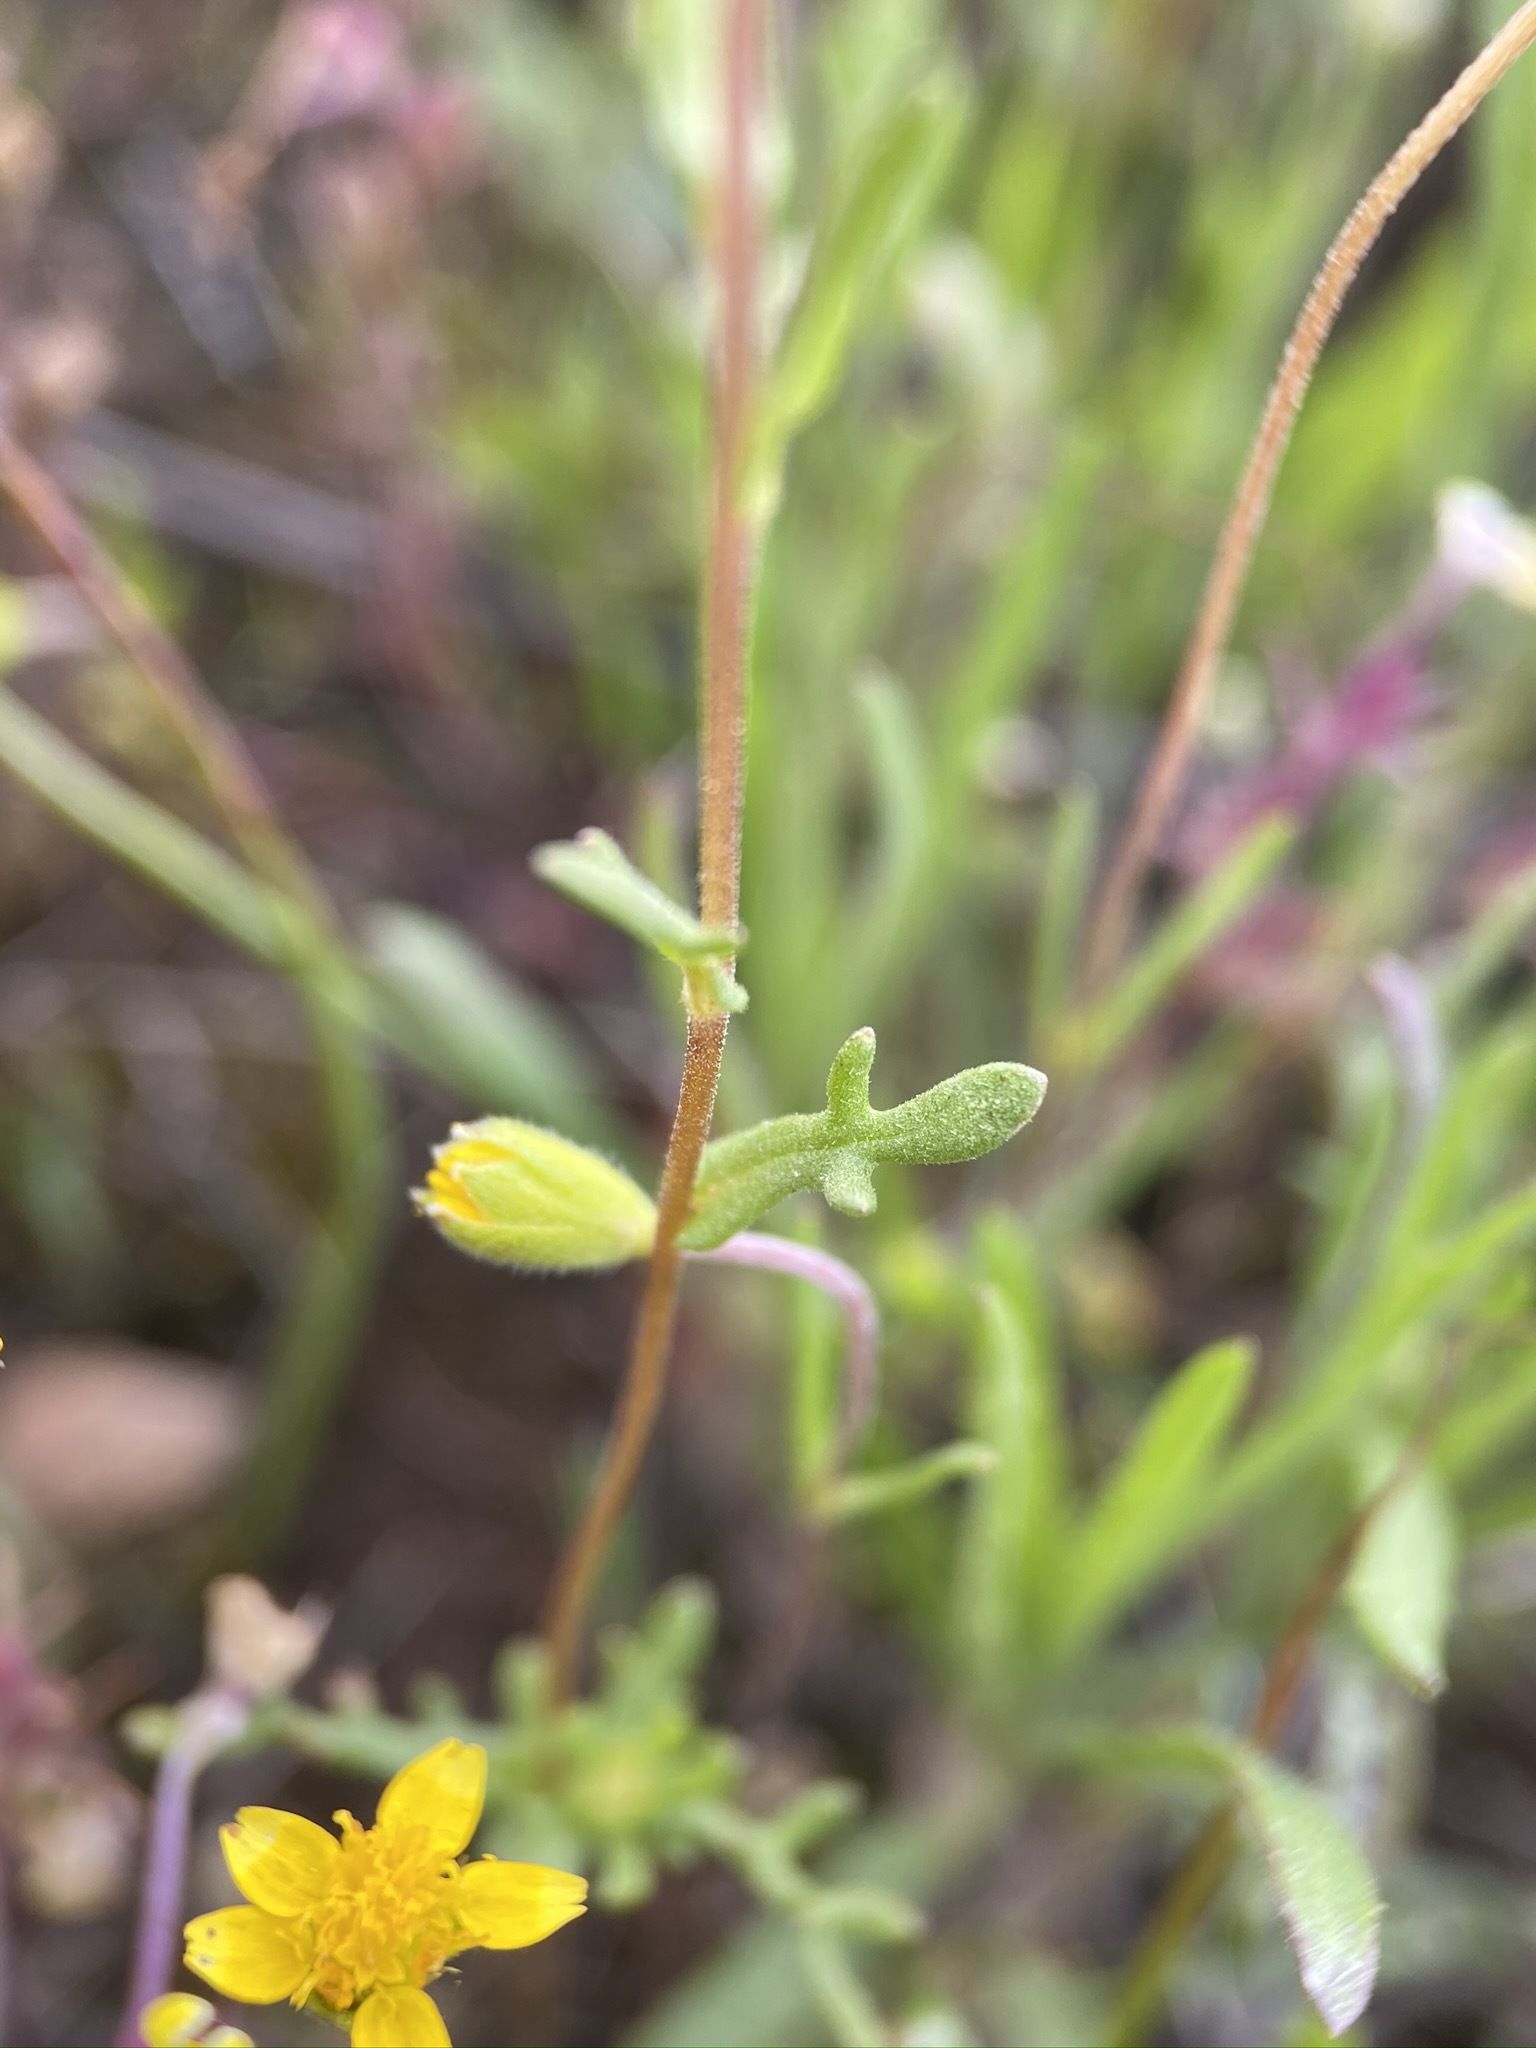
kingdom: Plantae
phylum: Tracheophyta
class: Magnoliopsida
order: Asterales
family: Asteraceae
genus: Layia
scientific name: Layia fremontii
